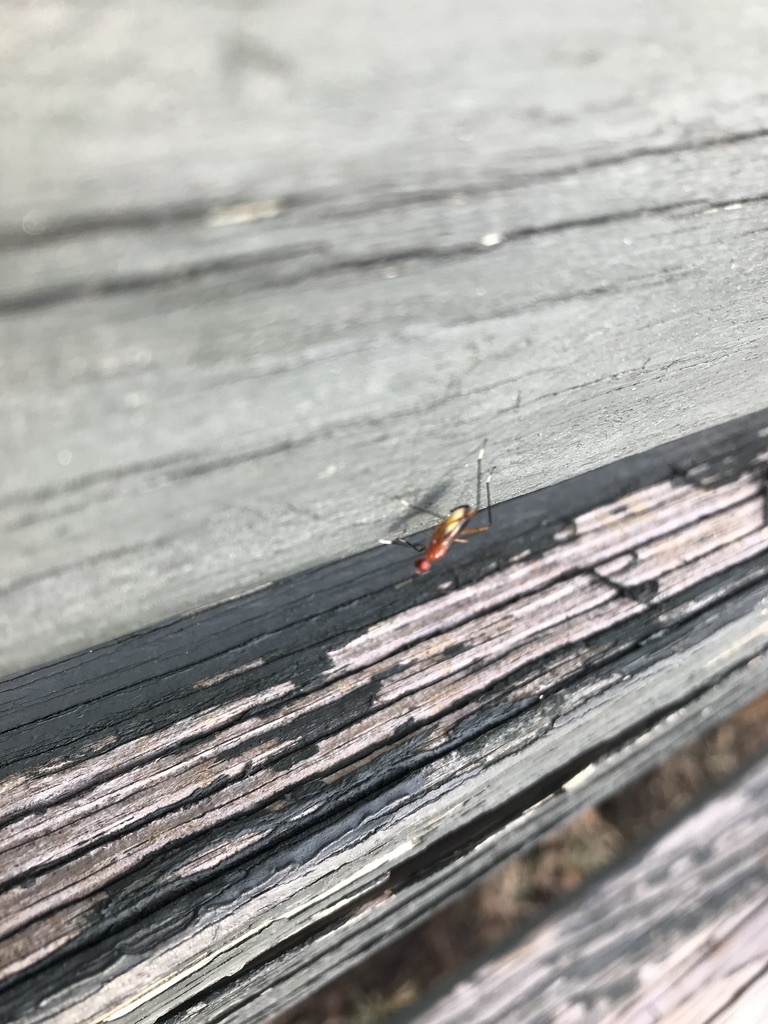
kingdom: Animalia
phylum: Arthropoda
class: Insecta
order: Diptera
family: Micropezidae
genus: Grallipeza
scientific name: Grallipeza nebulosa
